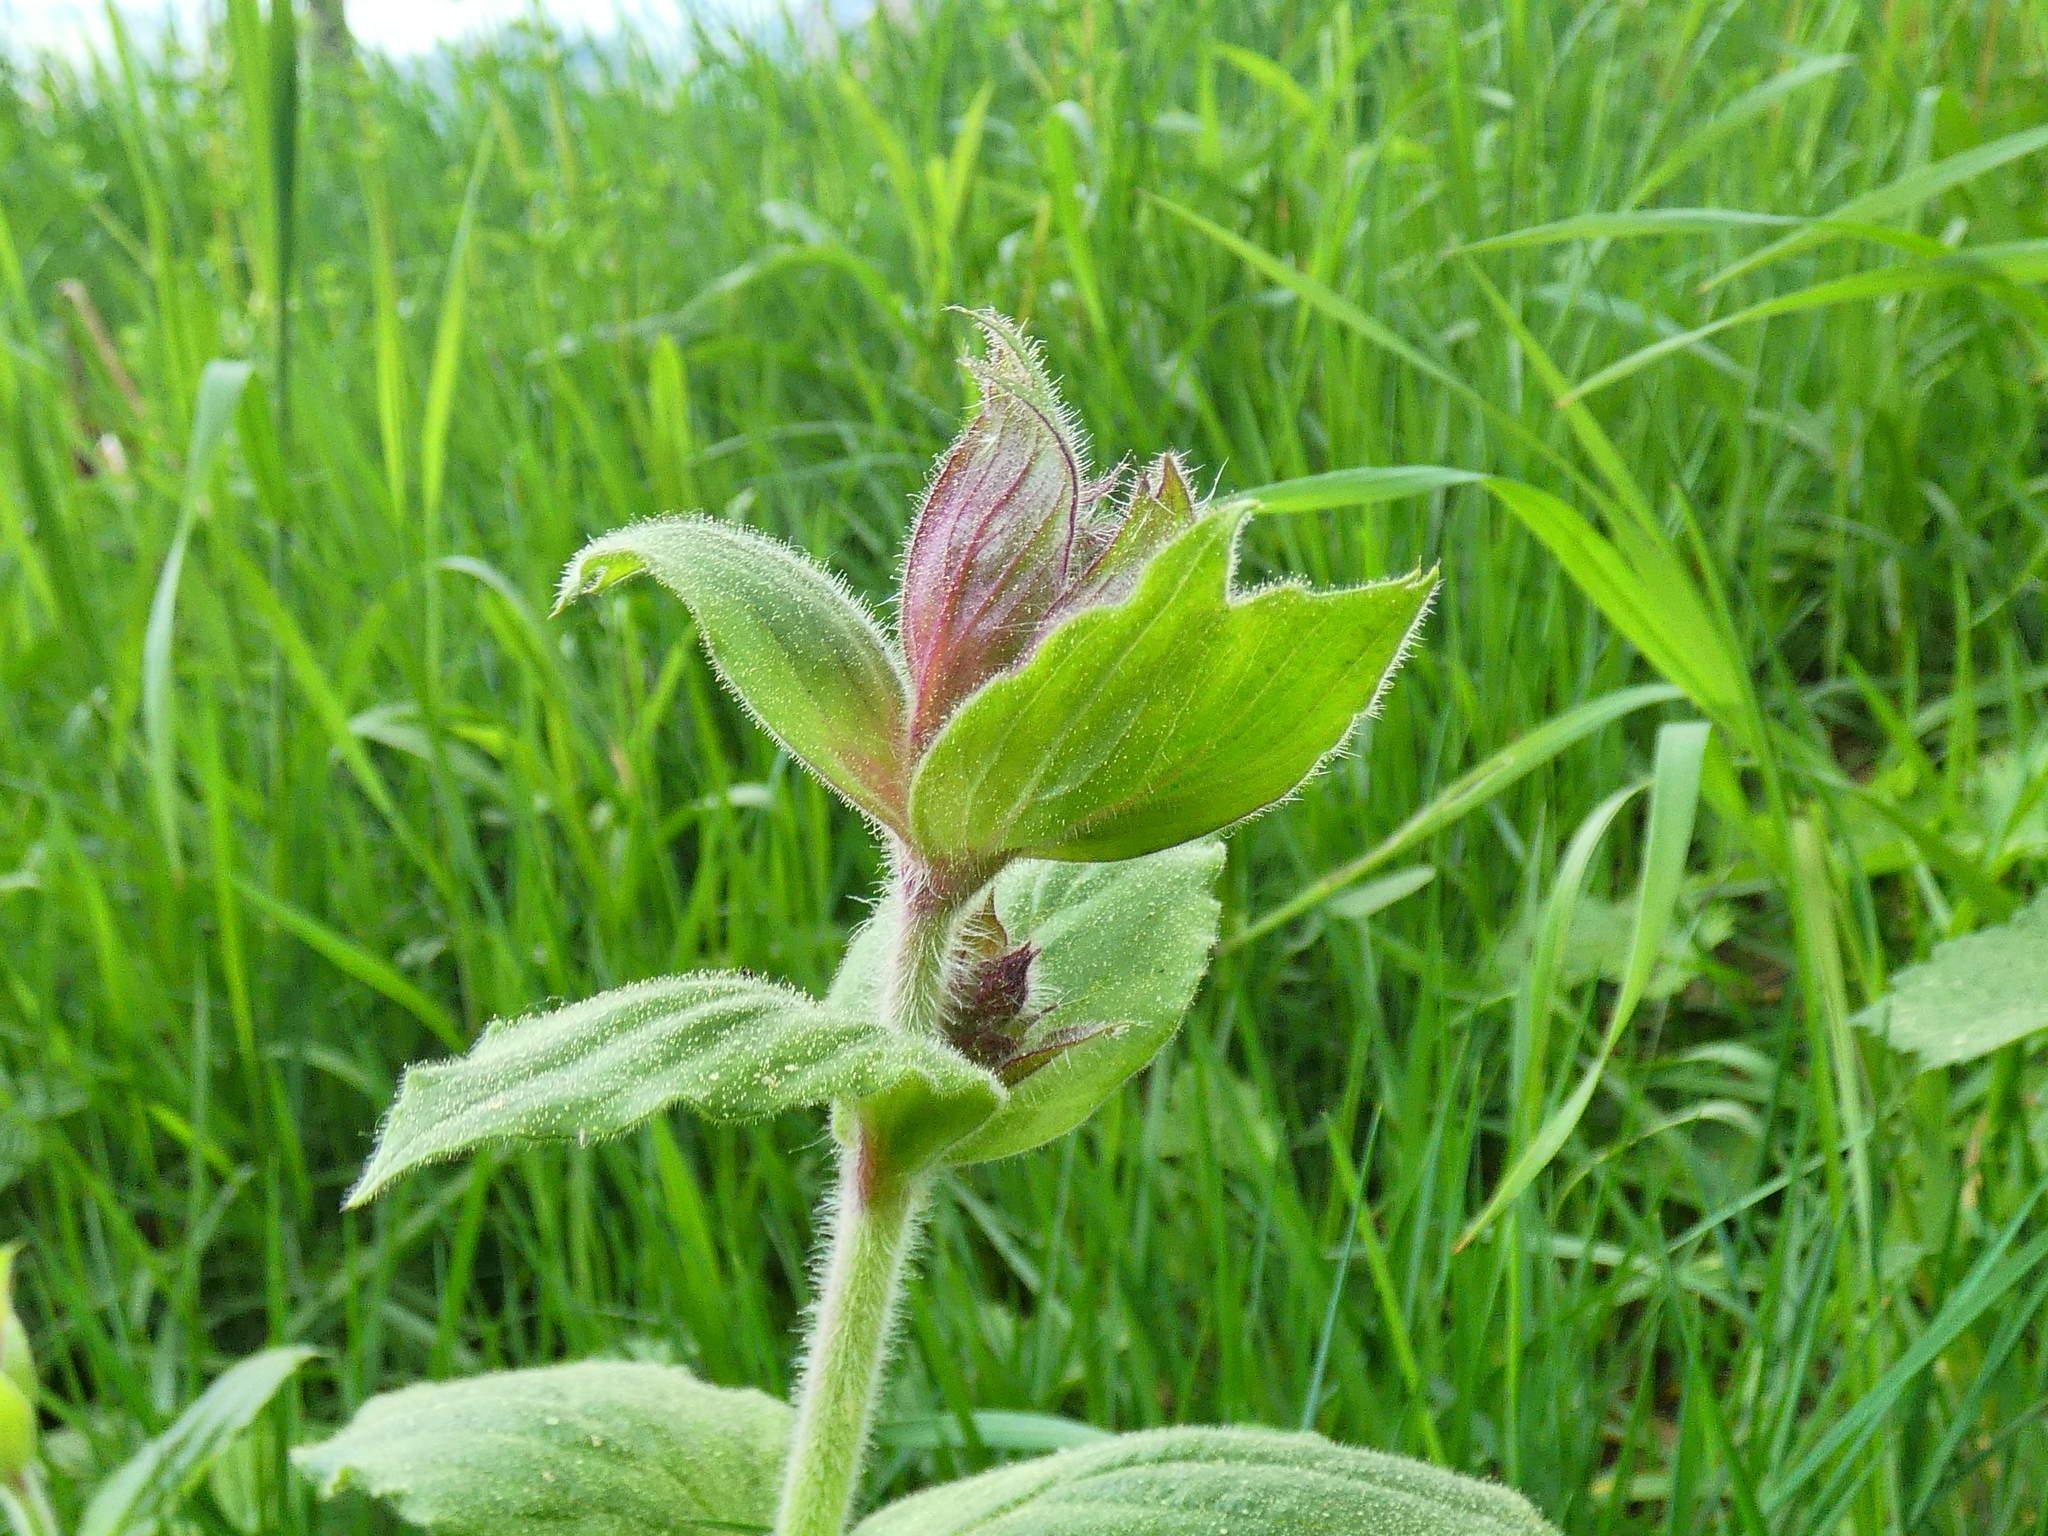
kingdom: Plantae
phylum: Tracheophyta
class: Magnoliopsida
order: Caryophyllales
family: Caryophyllaceae
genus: Silene
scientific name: Silene dioica
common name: Red campion
